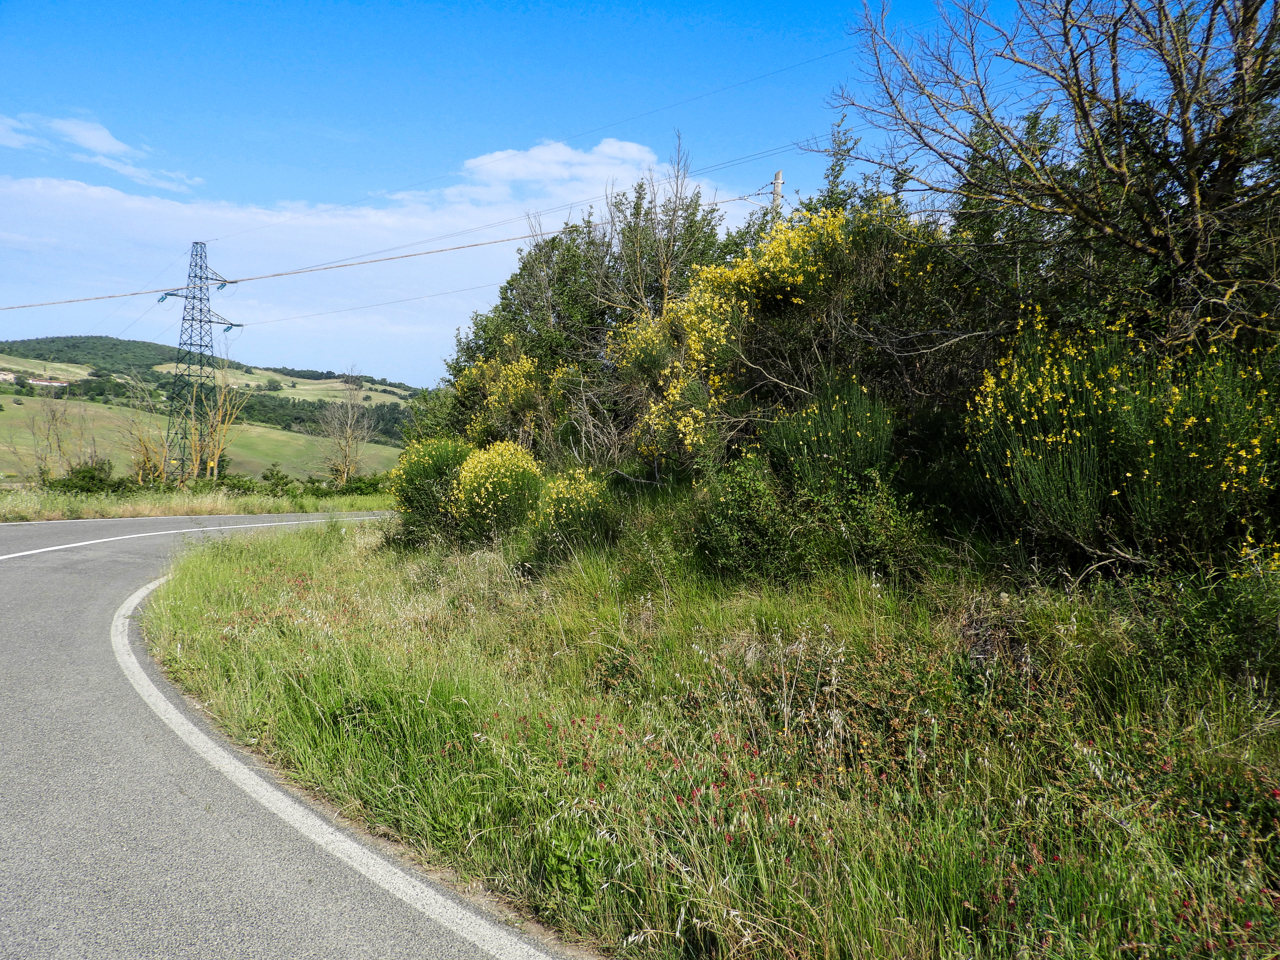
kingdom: Animalia
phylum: Arthropoda
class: Insecta
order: Lepidoptera
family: Hesperiidae
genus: Thymelicus
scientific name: Thymelicus acteon
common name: Lulworth skipper
